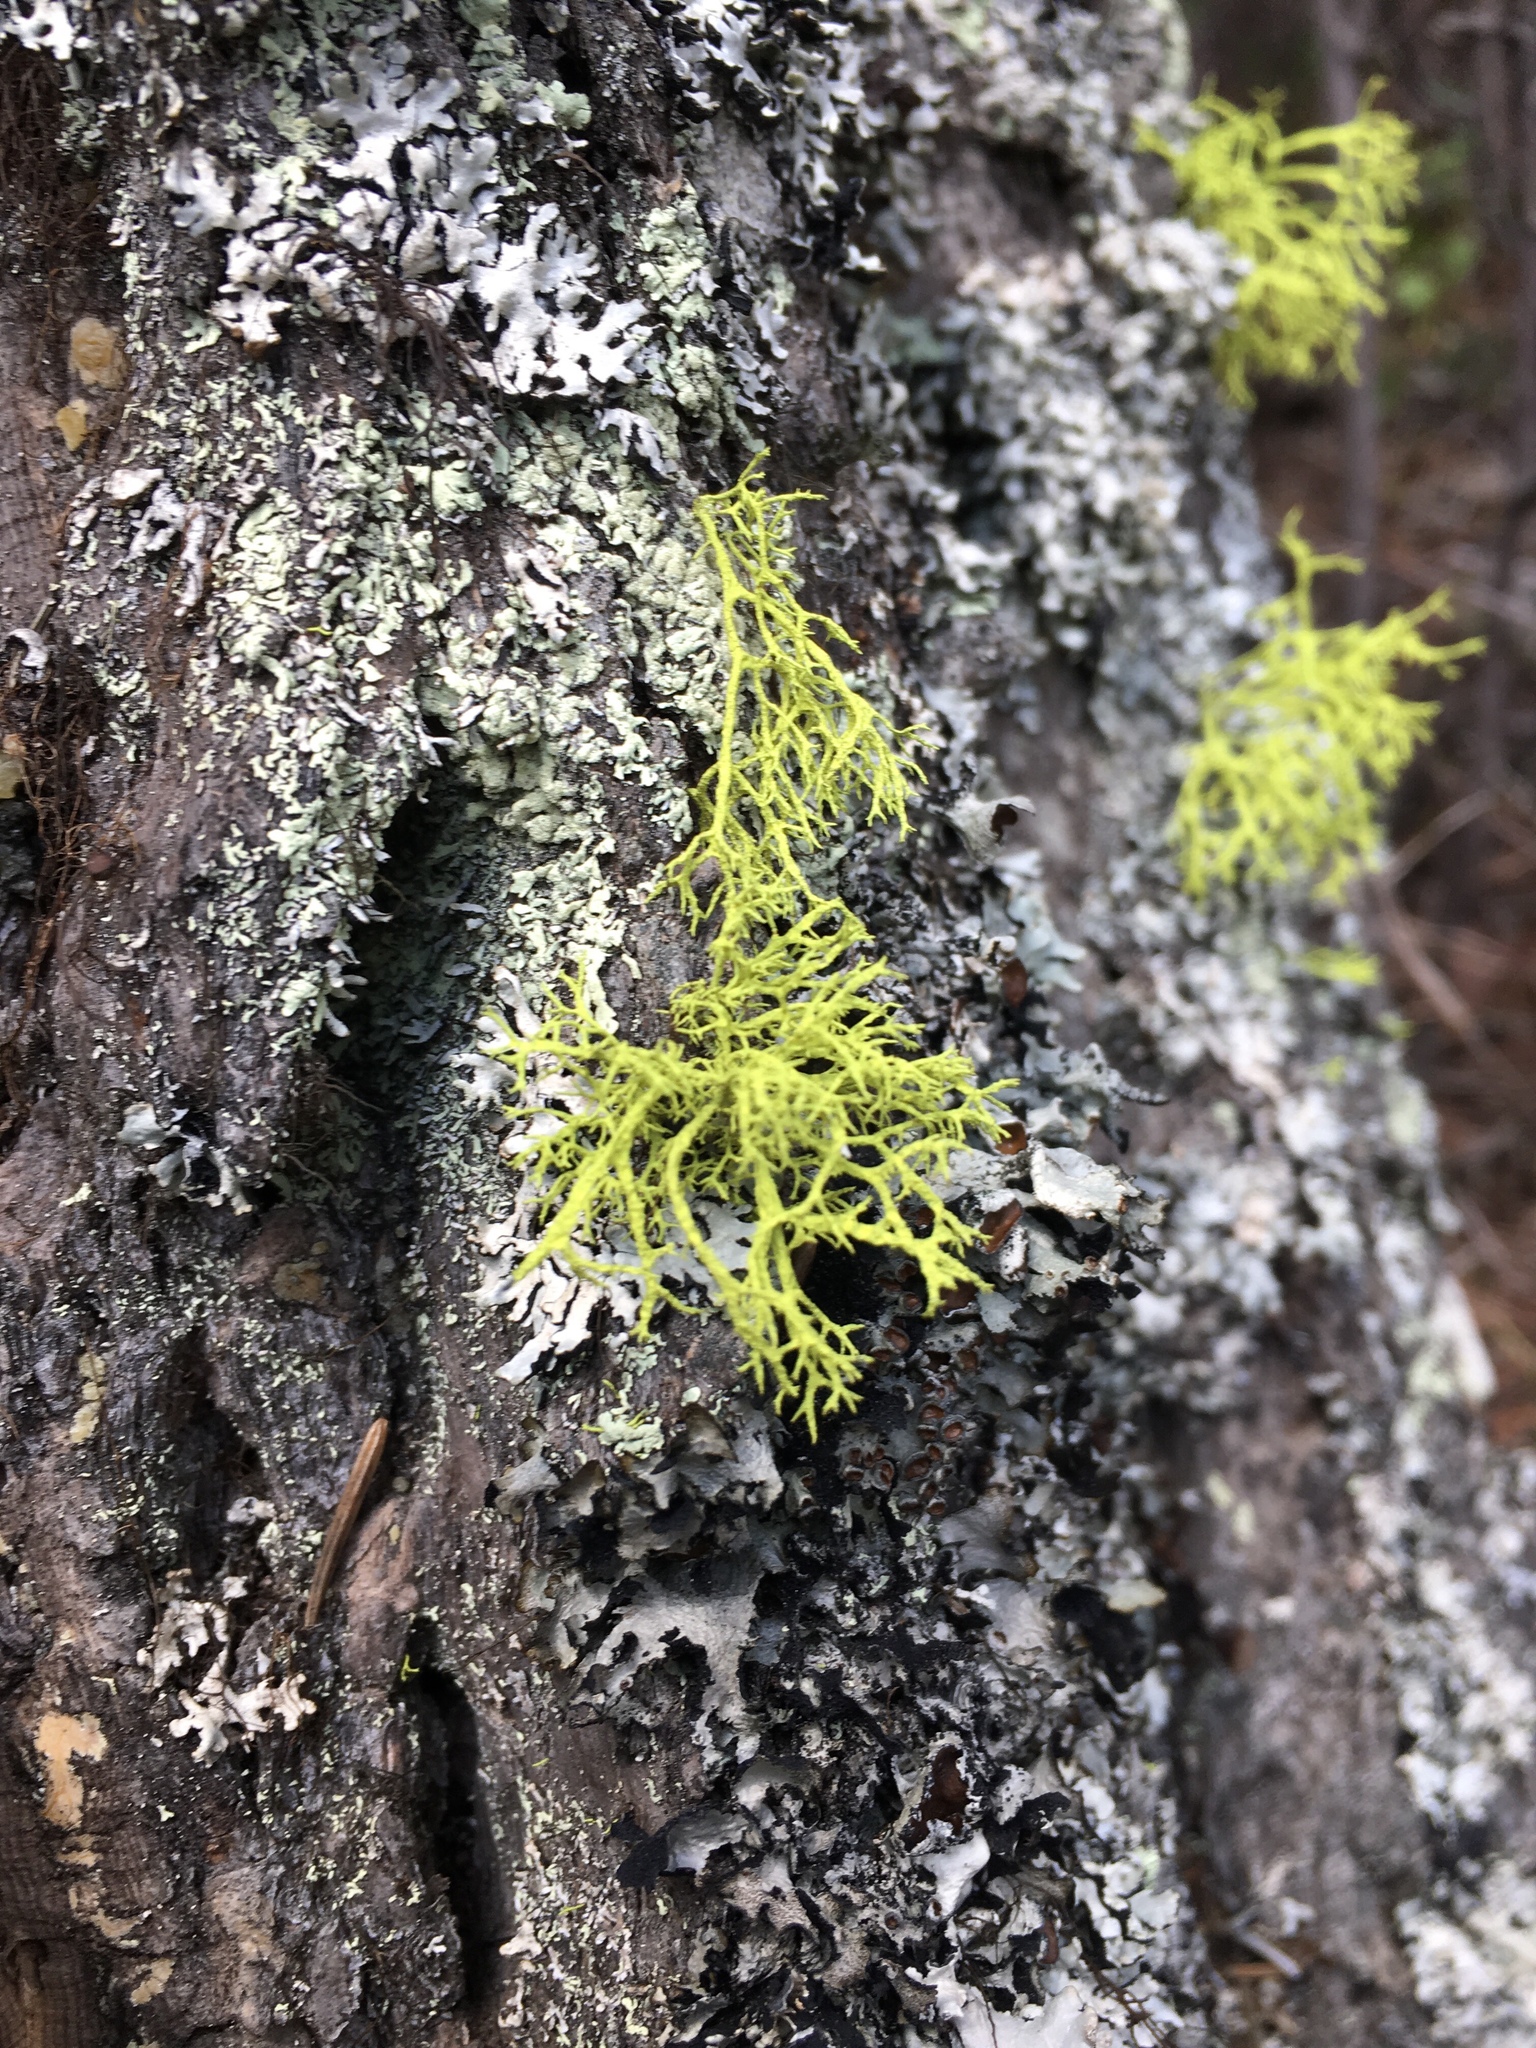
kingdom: Fungi
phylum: Ascomycota
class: Lecanoromycetes
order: Lecanorales
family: Parmeliaceae
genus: Letharia
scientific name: Letharia vulpina
